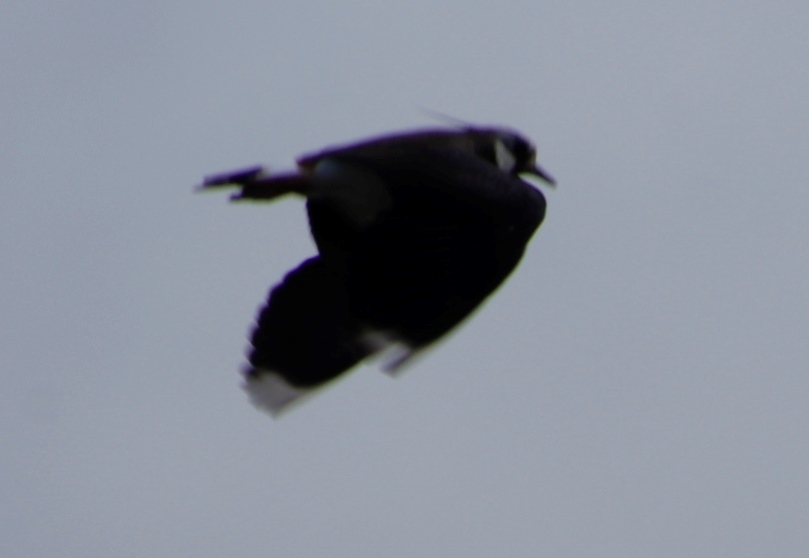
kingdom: Animalia
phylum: Chordata
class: Aves
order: Charadriiformes
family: Charadriidae
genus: Vanellus
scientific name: Vanellus vanellus
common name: Northern lapwing
